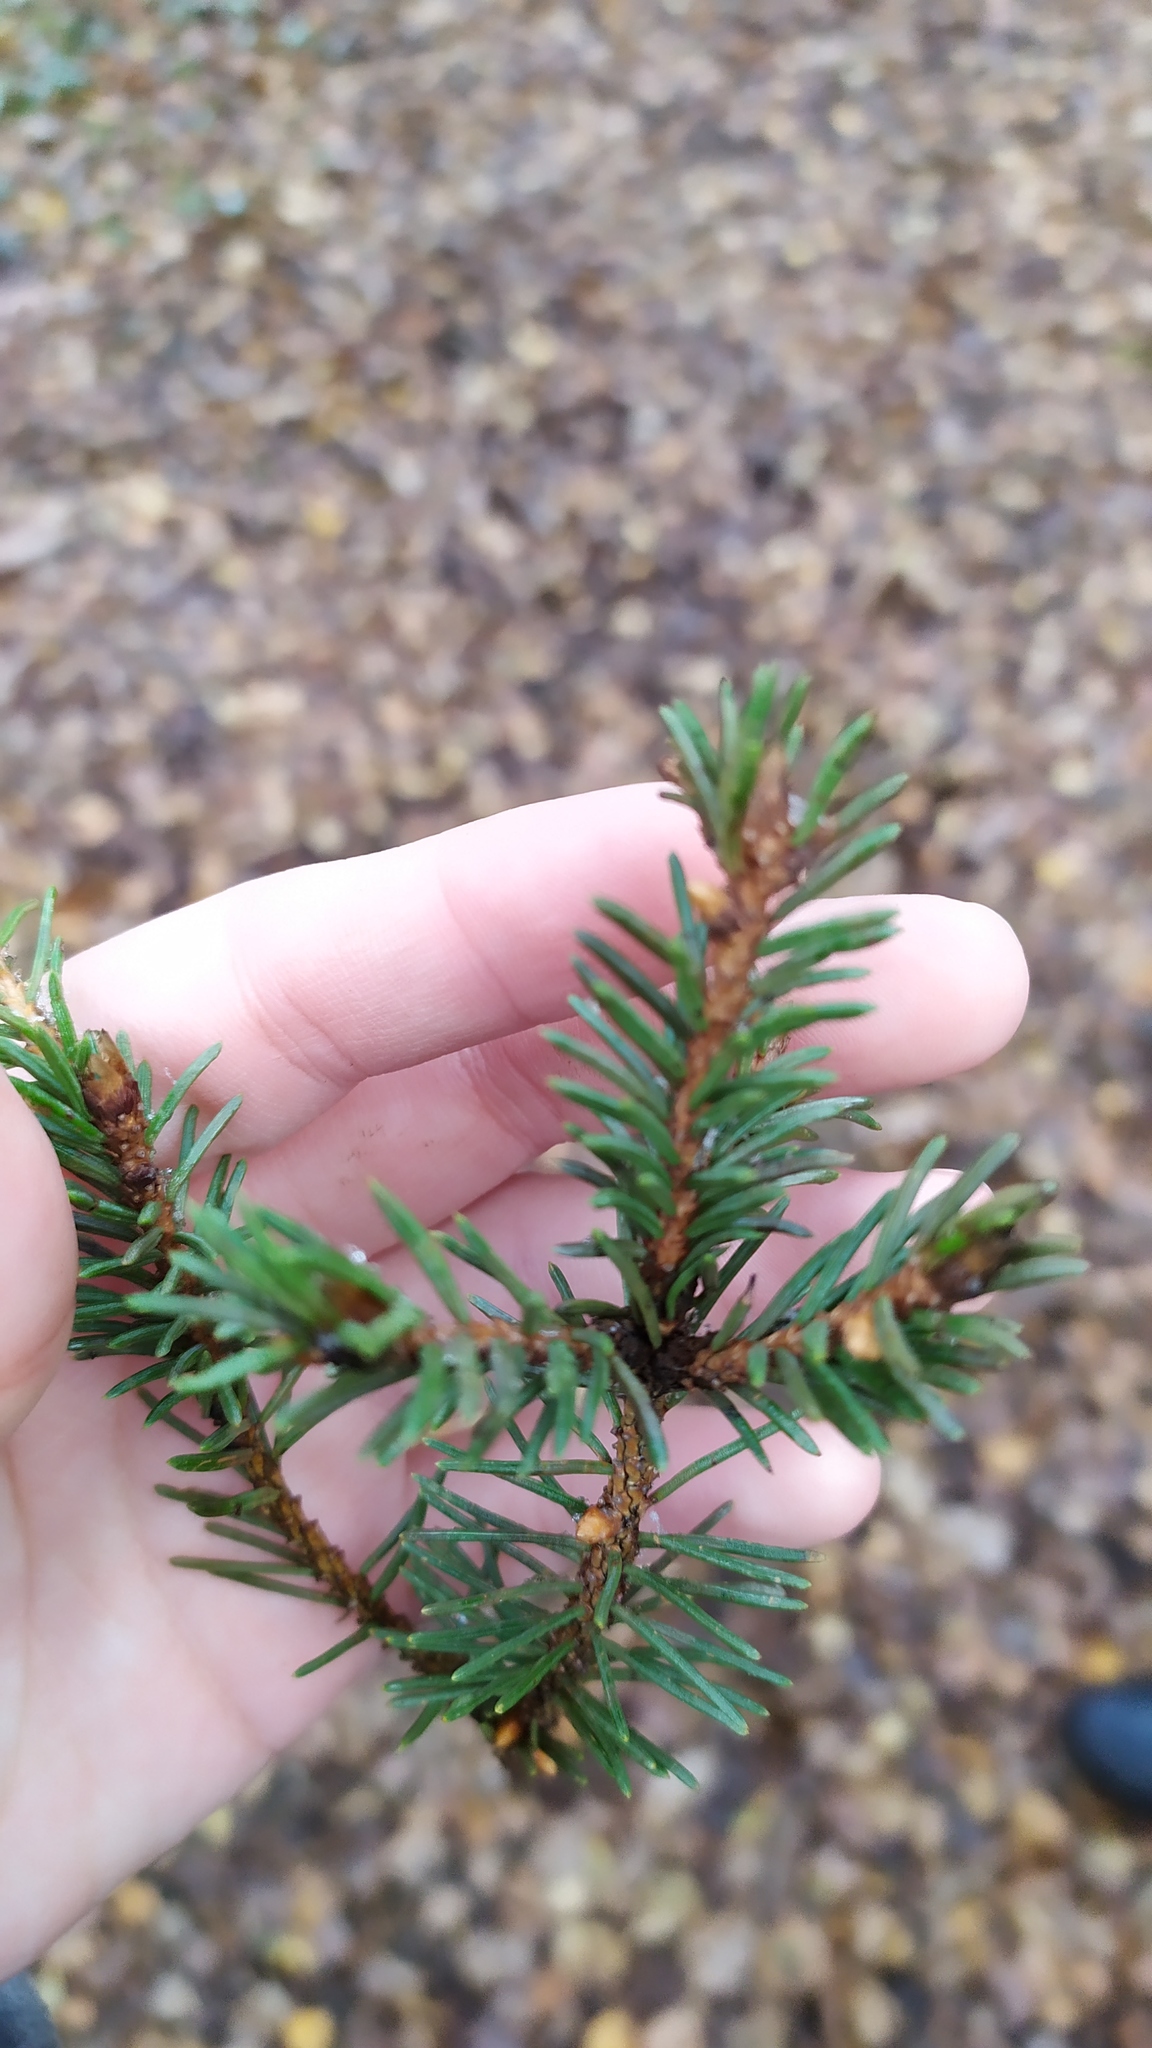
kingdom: Plantae
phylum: Tracheophyta
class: Pinopsida
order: Pinales
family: Pinaceae
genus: Picea
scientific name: Picea abies
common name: Norway spruce
